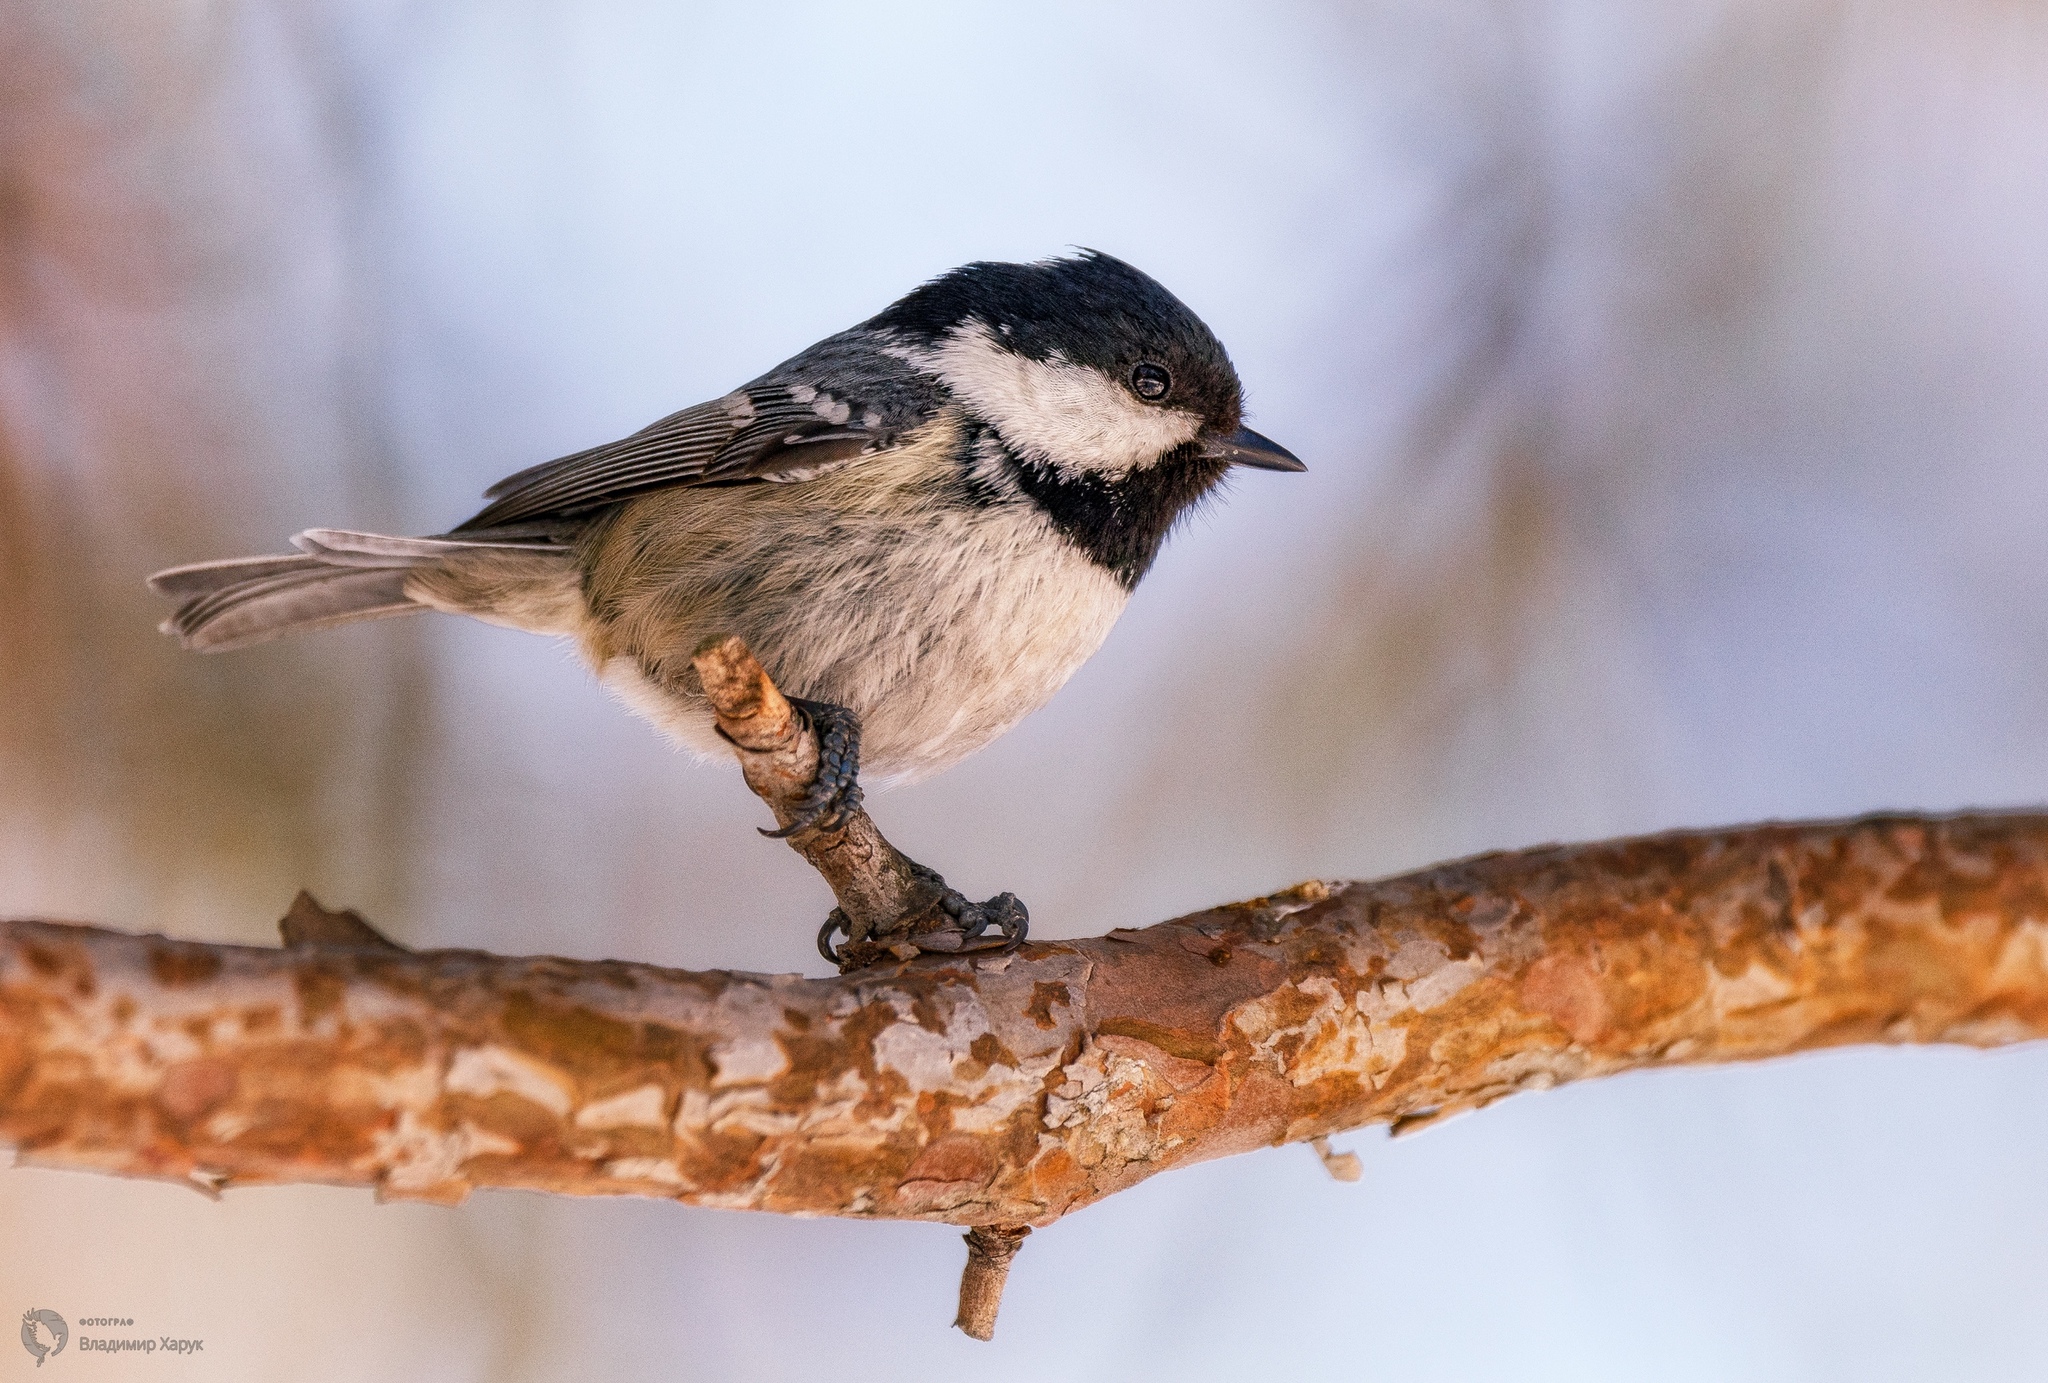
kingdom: Animalia
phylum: Chordata
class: Aves
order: Passeriformes
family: Paridae
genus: Periparus
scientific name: Periparus ater
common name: Coal tit
